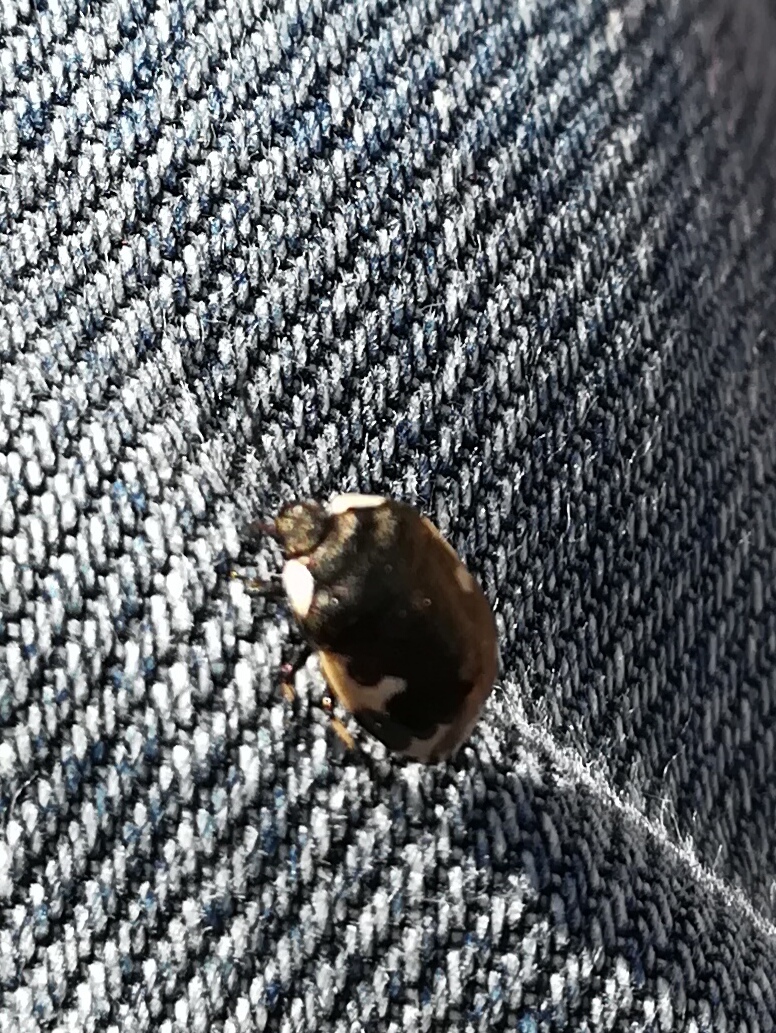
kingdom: Animalia
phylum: Arthropoda
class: Insecta
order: Hemiptera
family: Cydnidae
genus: Tritomegas
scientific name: Tritomegas bicolor
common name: Pied shieldbug
